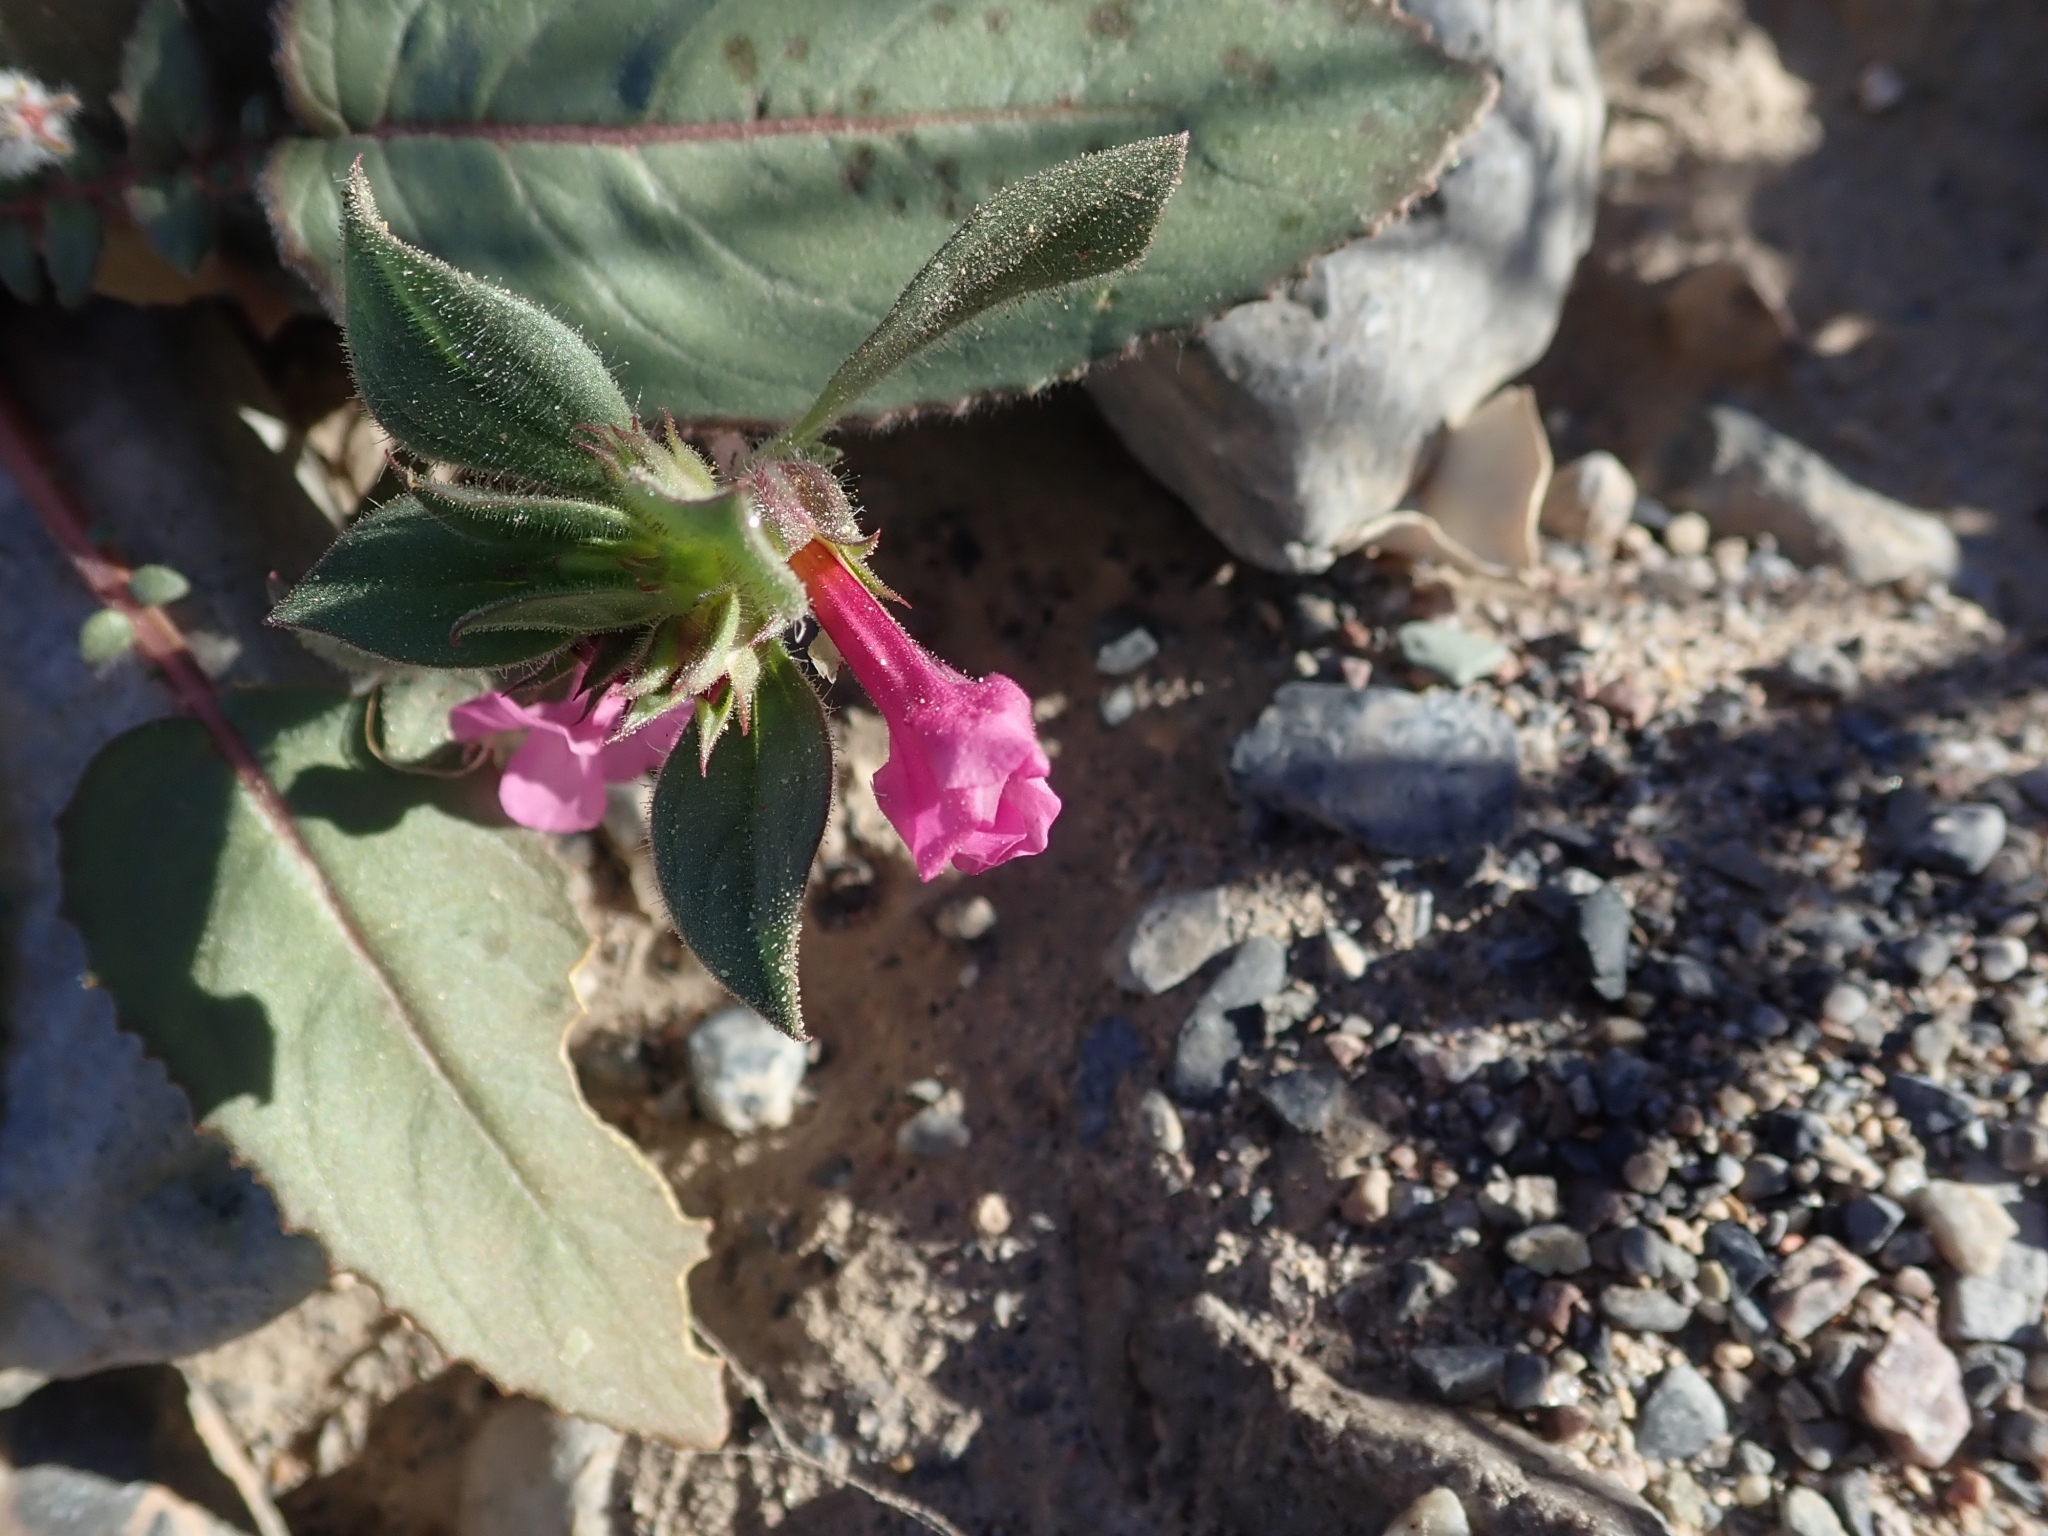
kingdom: Plantae
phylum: Tracheophyta
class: Magnoliopsida
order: Lamiales
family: Phrymaceae
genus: Diplacus
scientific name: Diplacus bigelovii
